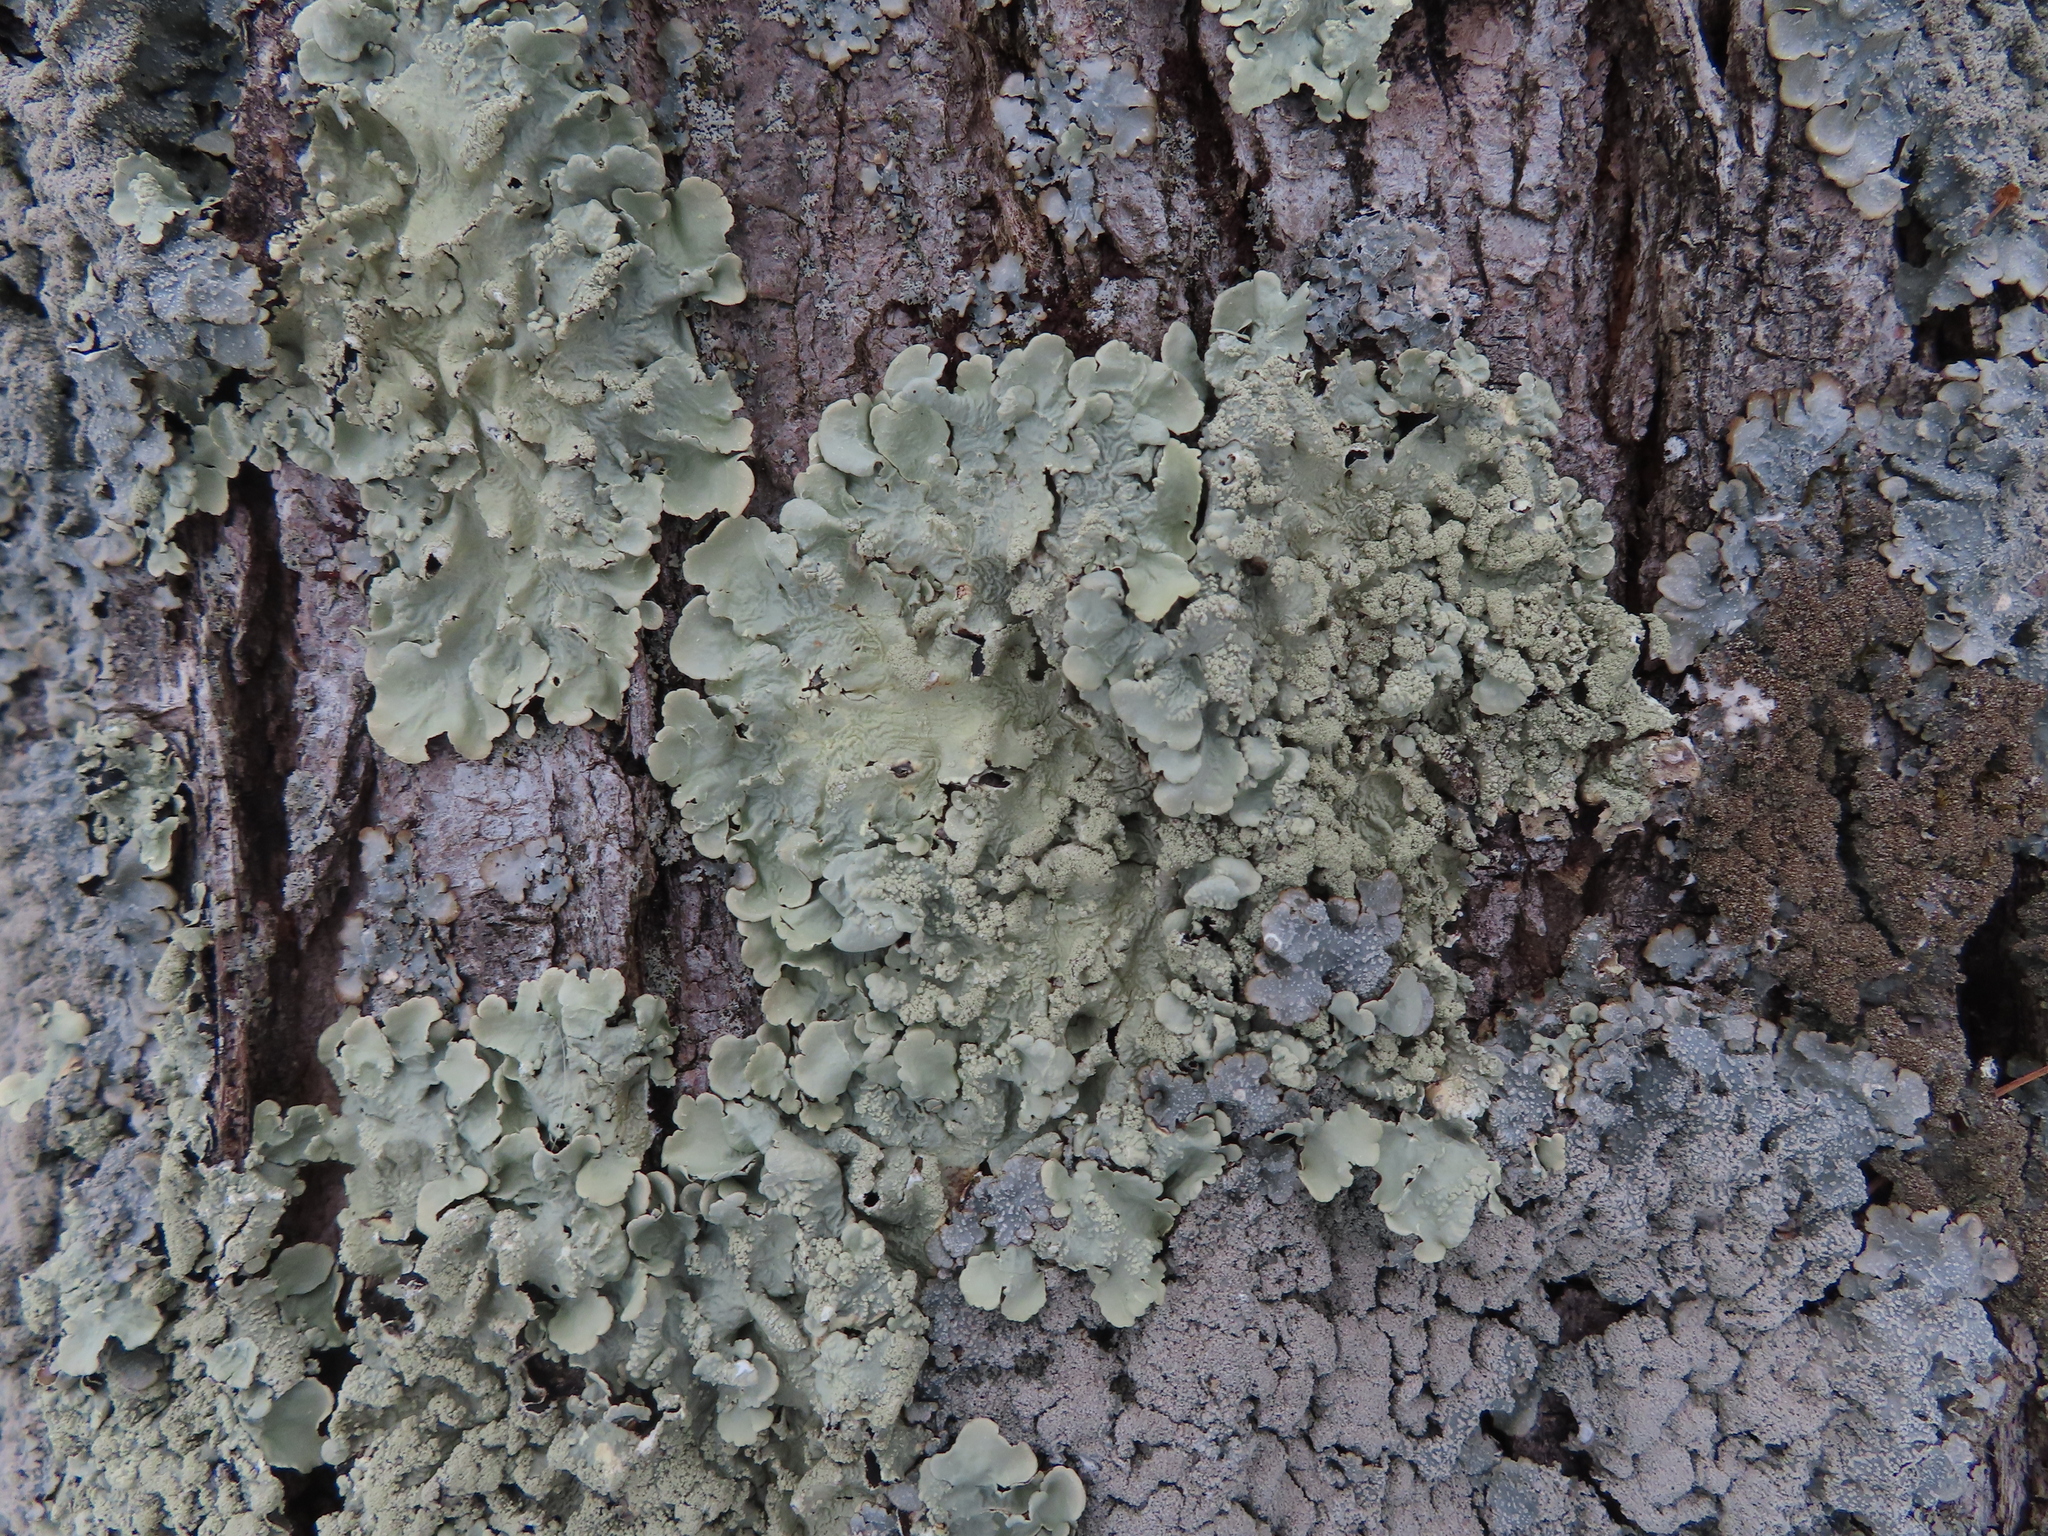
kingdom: Fungi
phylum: Ascomycota
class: Lecanoromycetes
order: Lecanorales
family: Parmeliaceae
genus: Flavoparmelia
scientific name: Flavoparmelia caperata
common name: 40-mile per hour lichen
